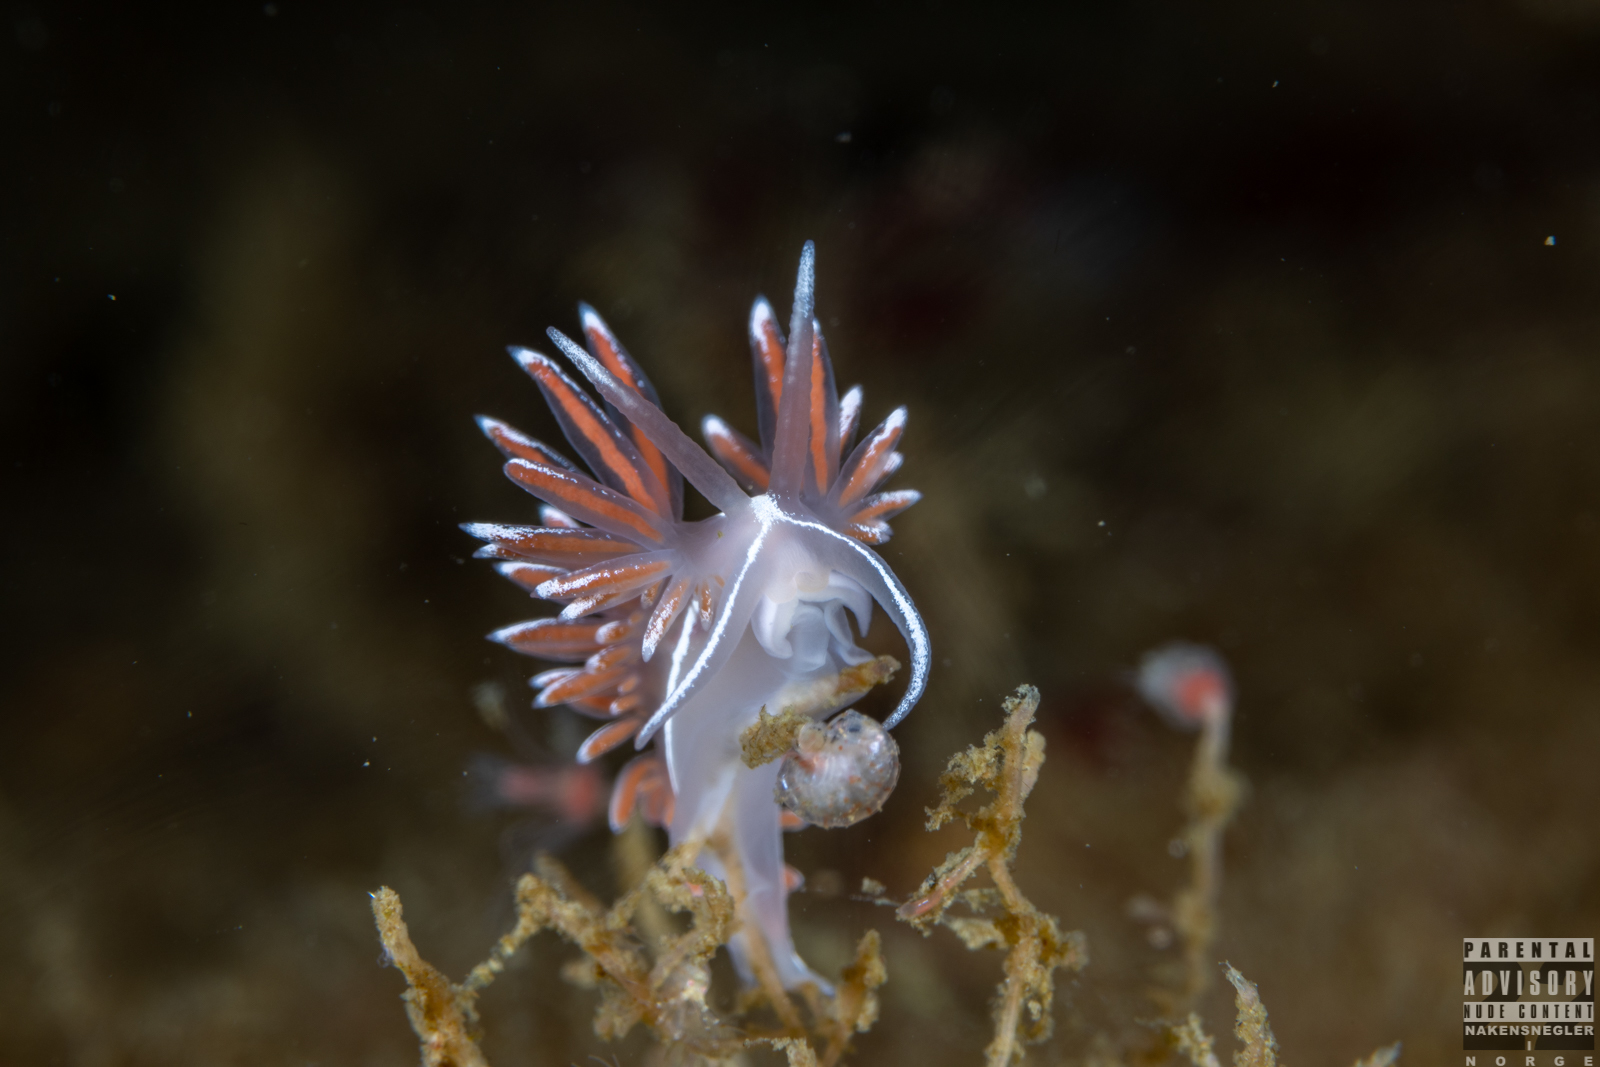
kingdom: Animalia
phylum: Mollusca
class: Gastropoda
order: Nudibranchia
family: Coryphellidae
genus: Coryphella
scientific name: Coryphella lineata
